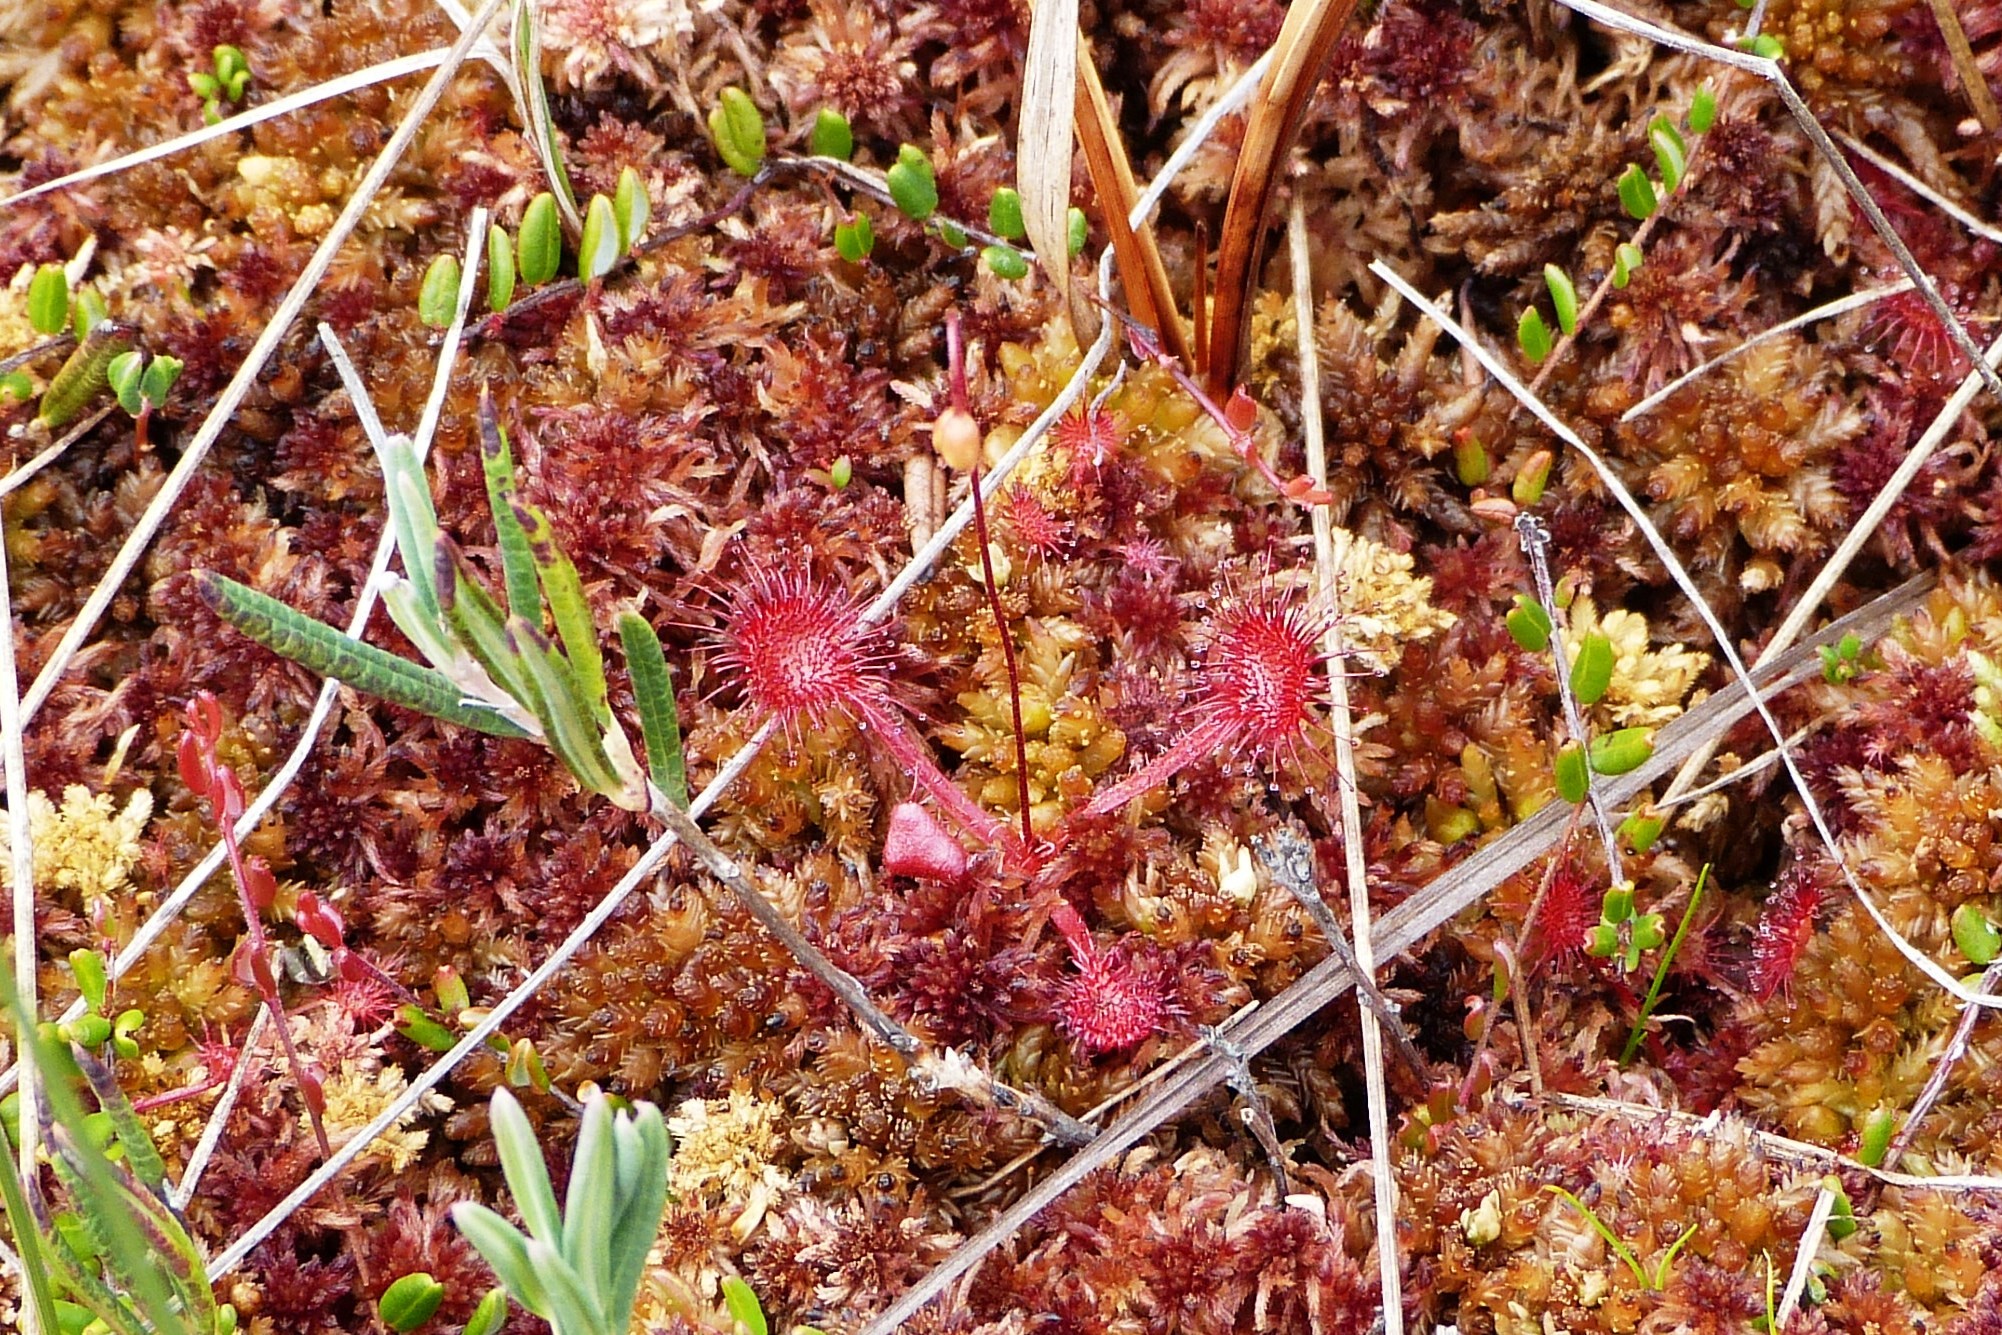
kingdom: Plantae
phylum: Tracheophyta
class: Magnoliopsida
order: Caryophyllales
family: Droseraceae
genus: Drosera
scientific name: Drosera rotundifolia
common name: Round-leaved sundew
